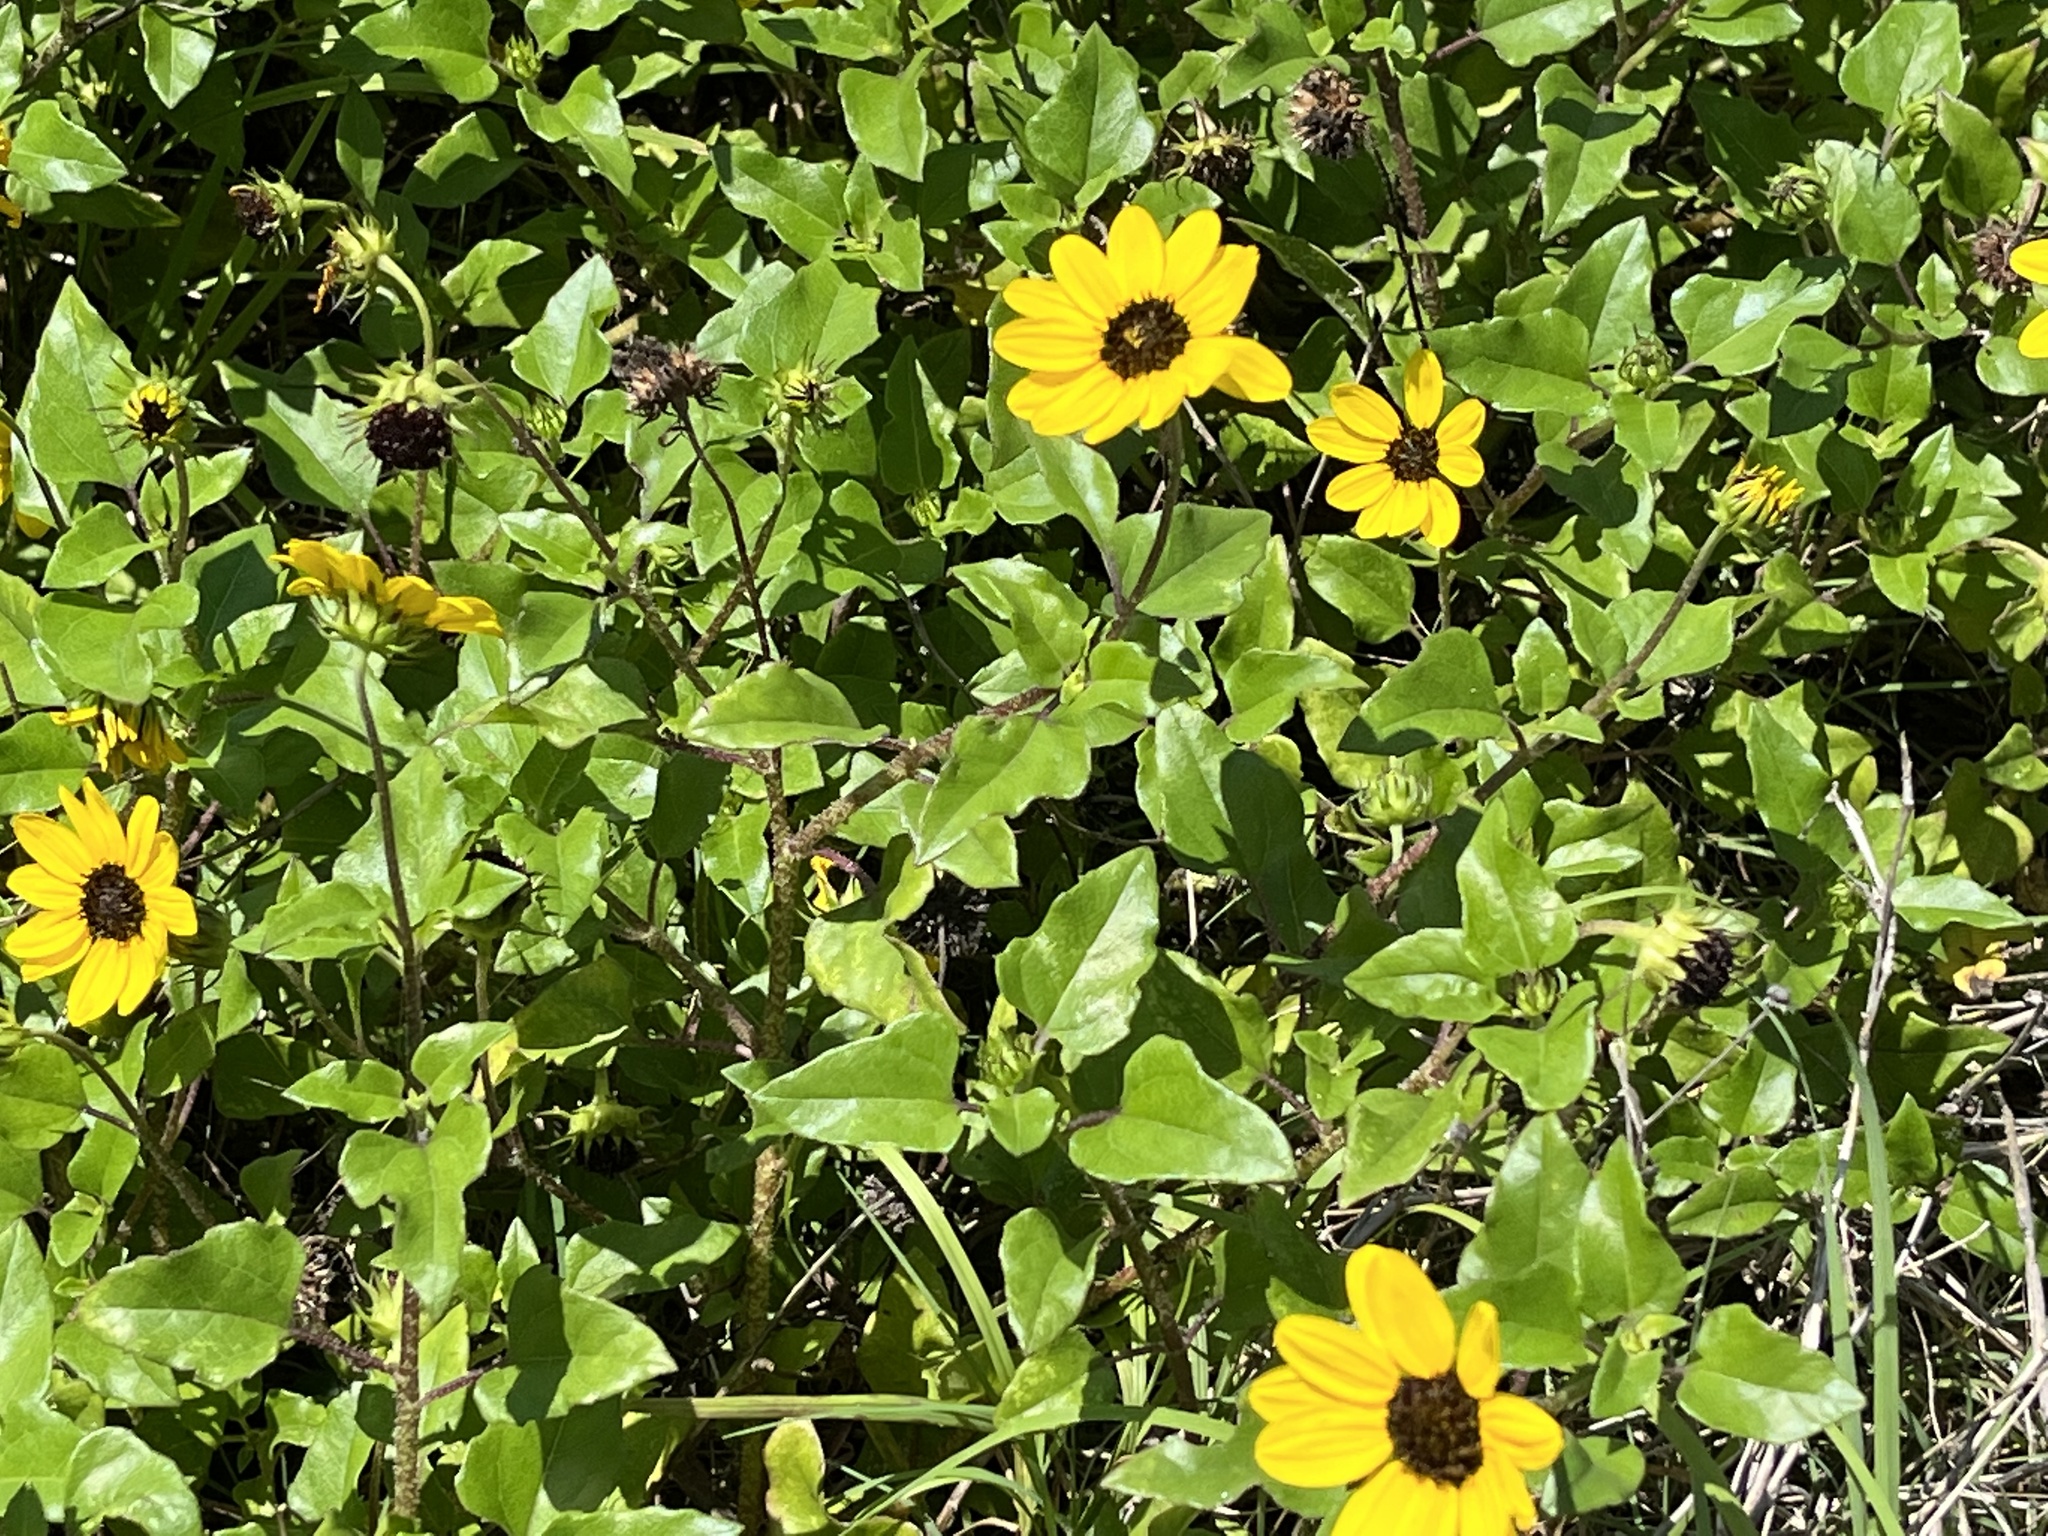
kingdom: Plantae
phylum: Tracheophyta
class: Magnoliopsida
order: Asterales
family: Asteraceae
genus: Helianthus
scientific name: Helianthus debilis
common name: Weak sunflower
